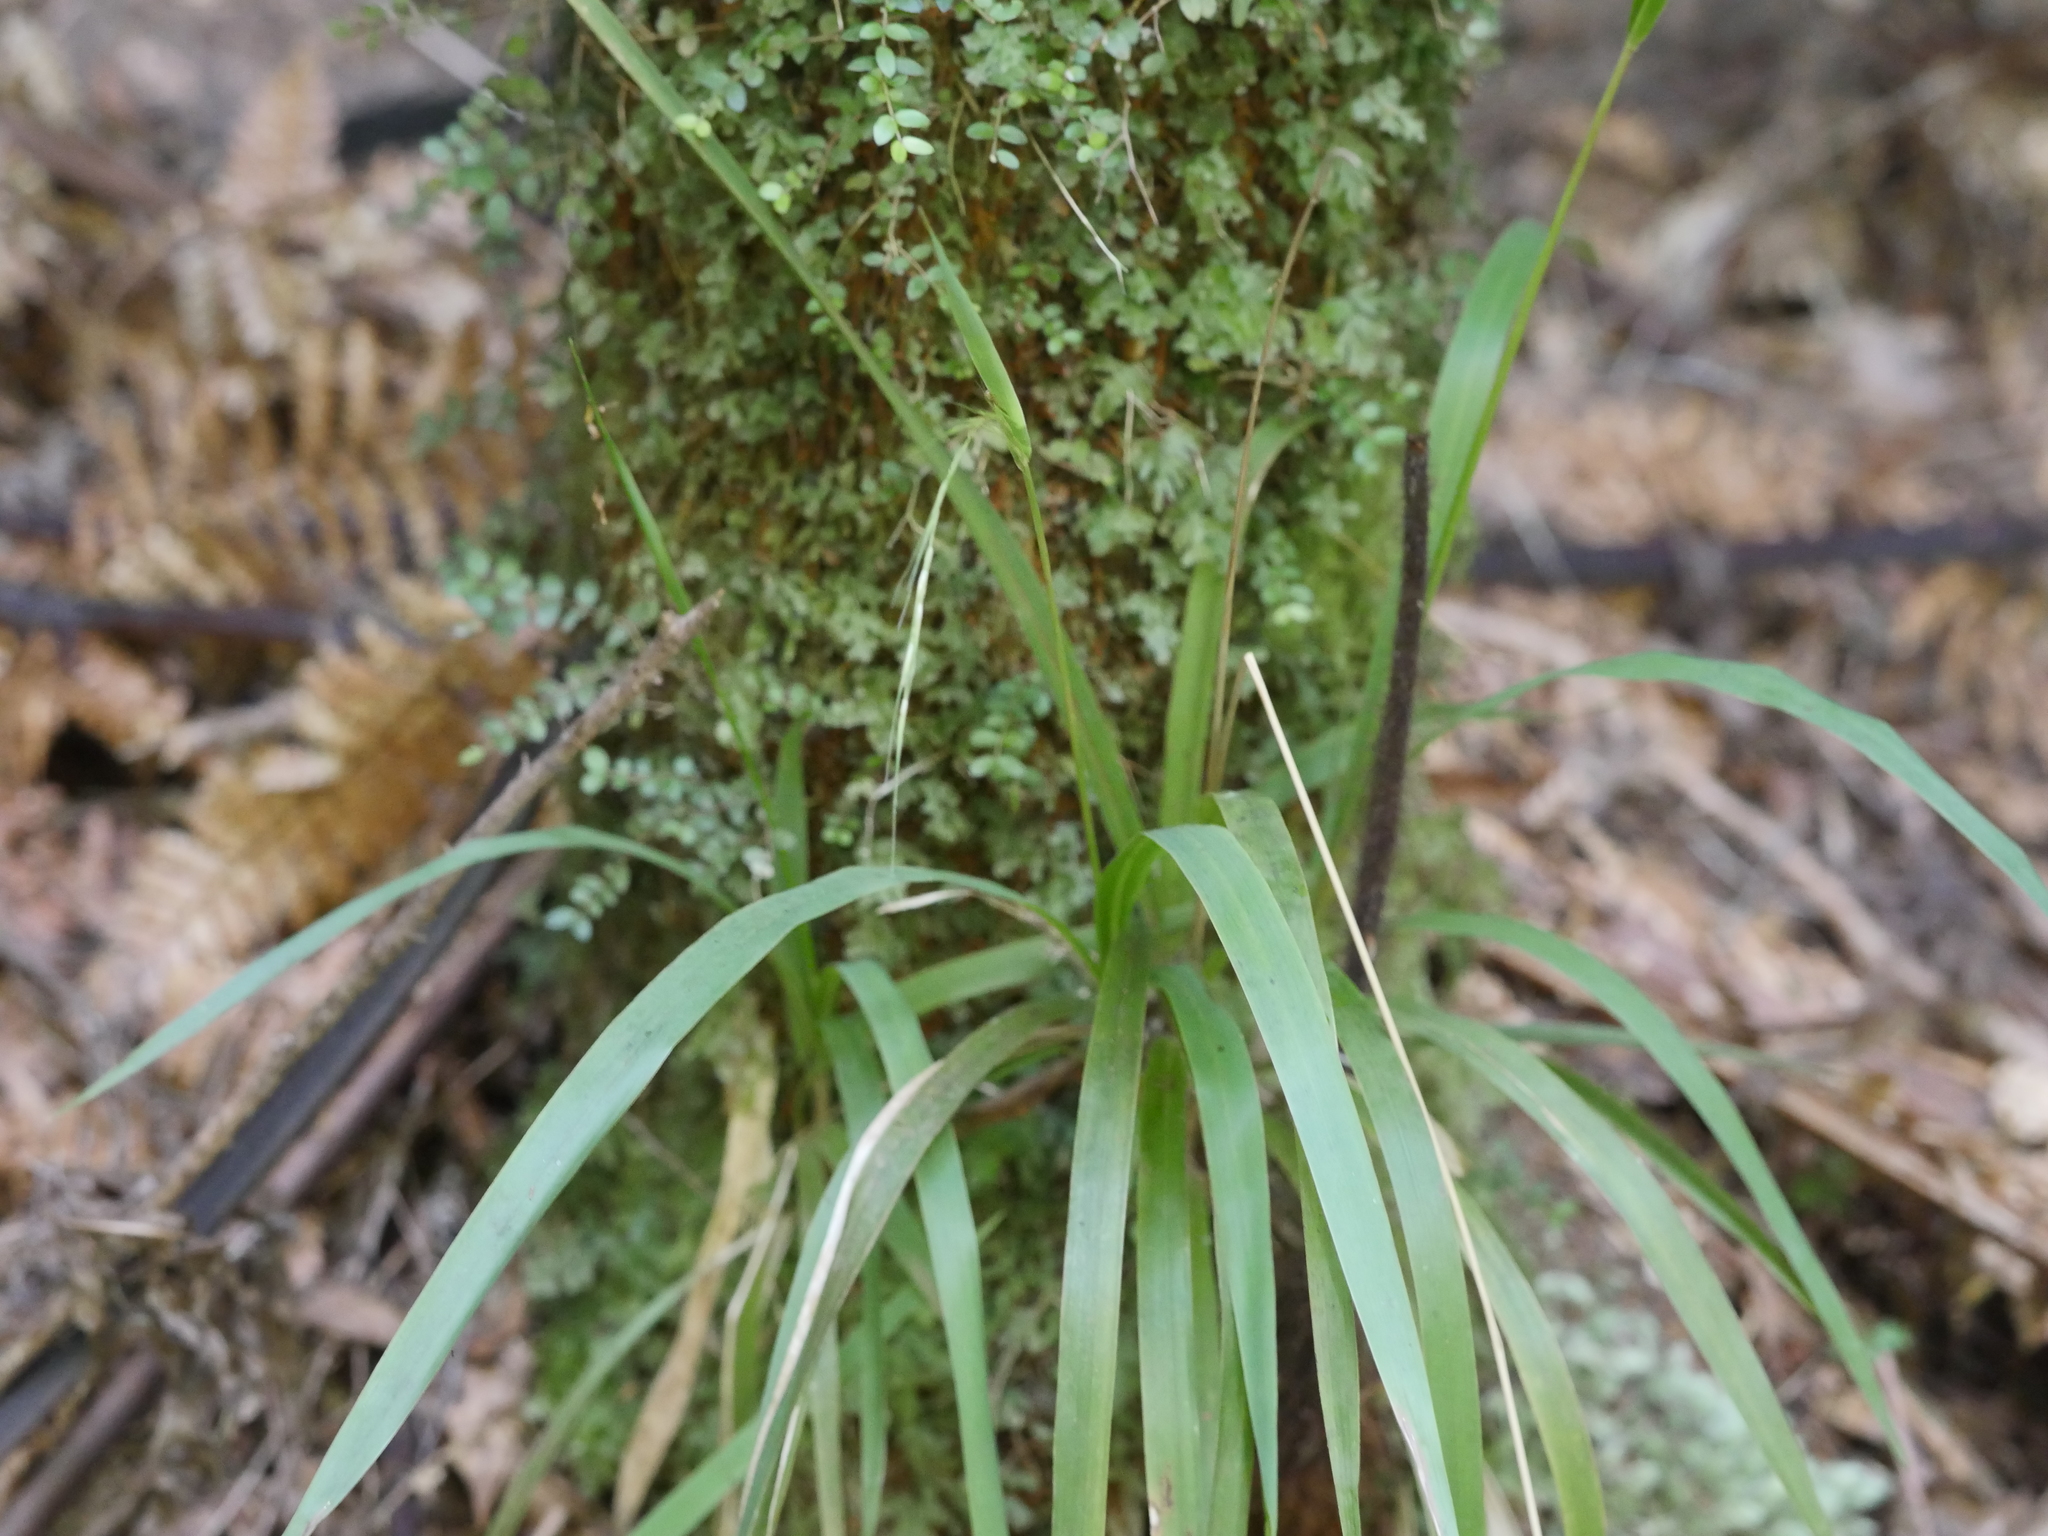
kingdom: Plantae
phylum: Tracheophyta
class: Liliopsida
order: Poales
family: Poaceae
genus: Ehrharta
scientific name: Ehrharta diplax
